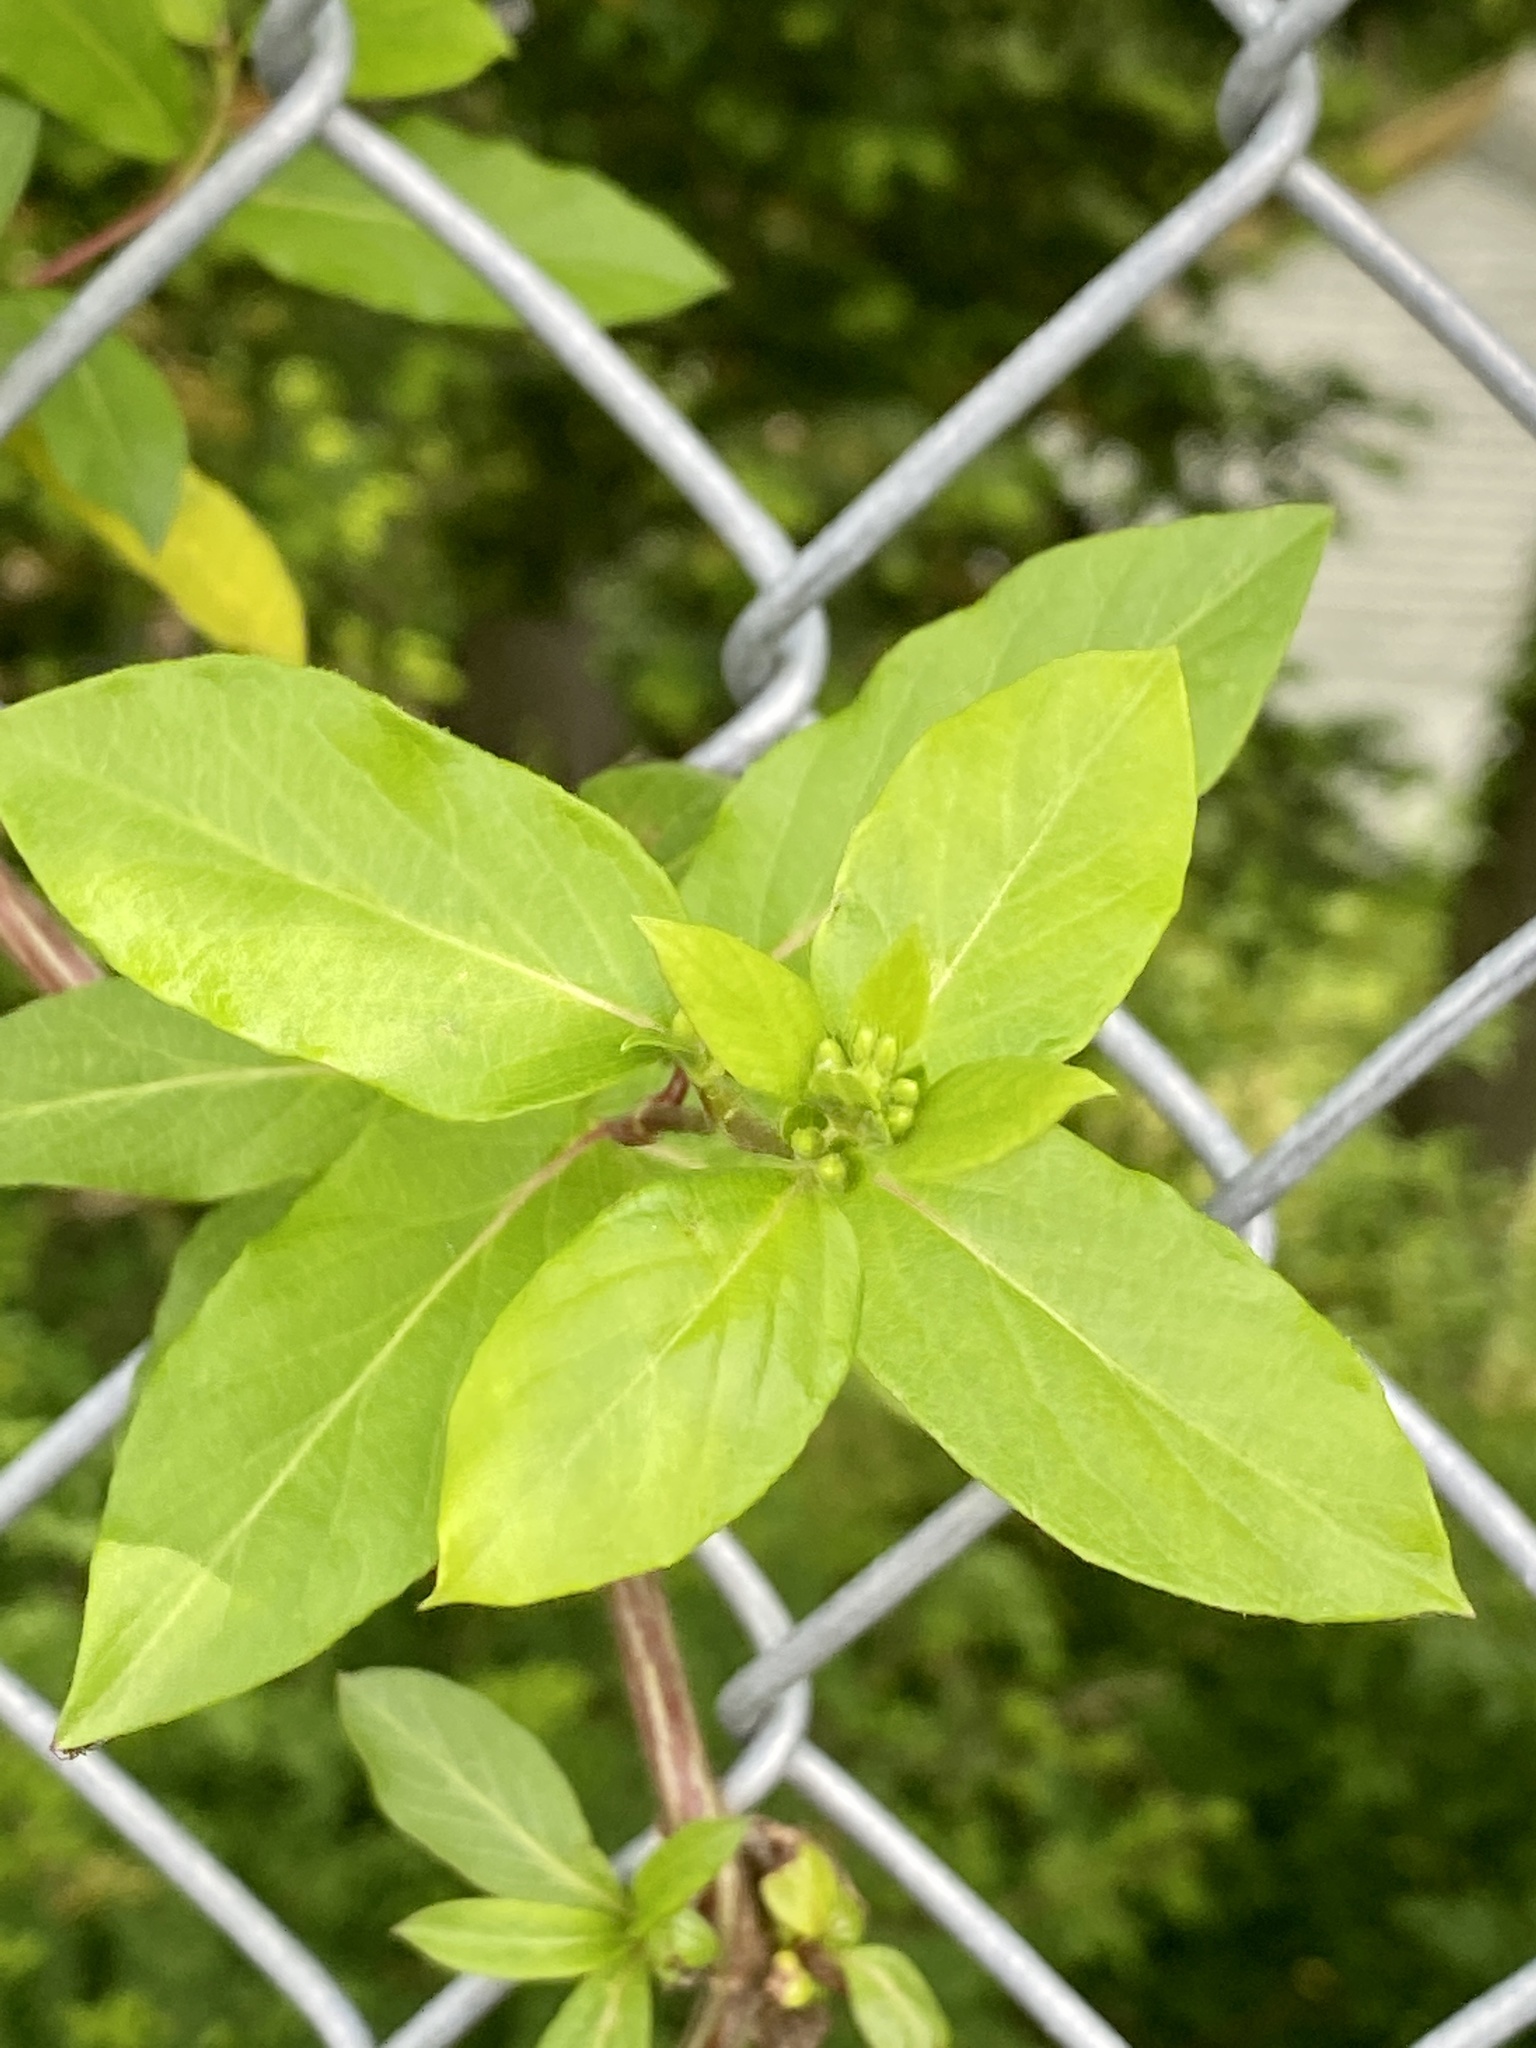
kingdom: Plantae
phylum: Tracheophyta
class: Magnoliopsida
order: Dipsacales
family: Caprifoliaceae
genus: Lonicera
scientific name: Lonicera japonica
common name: Japanese honeysuckle
